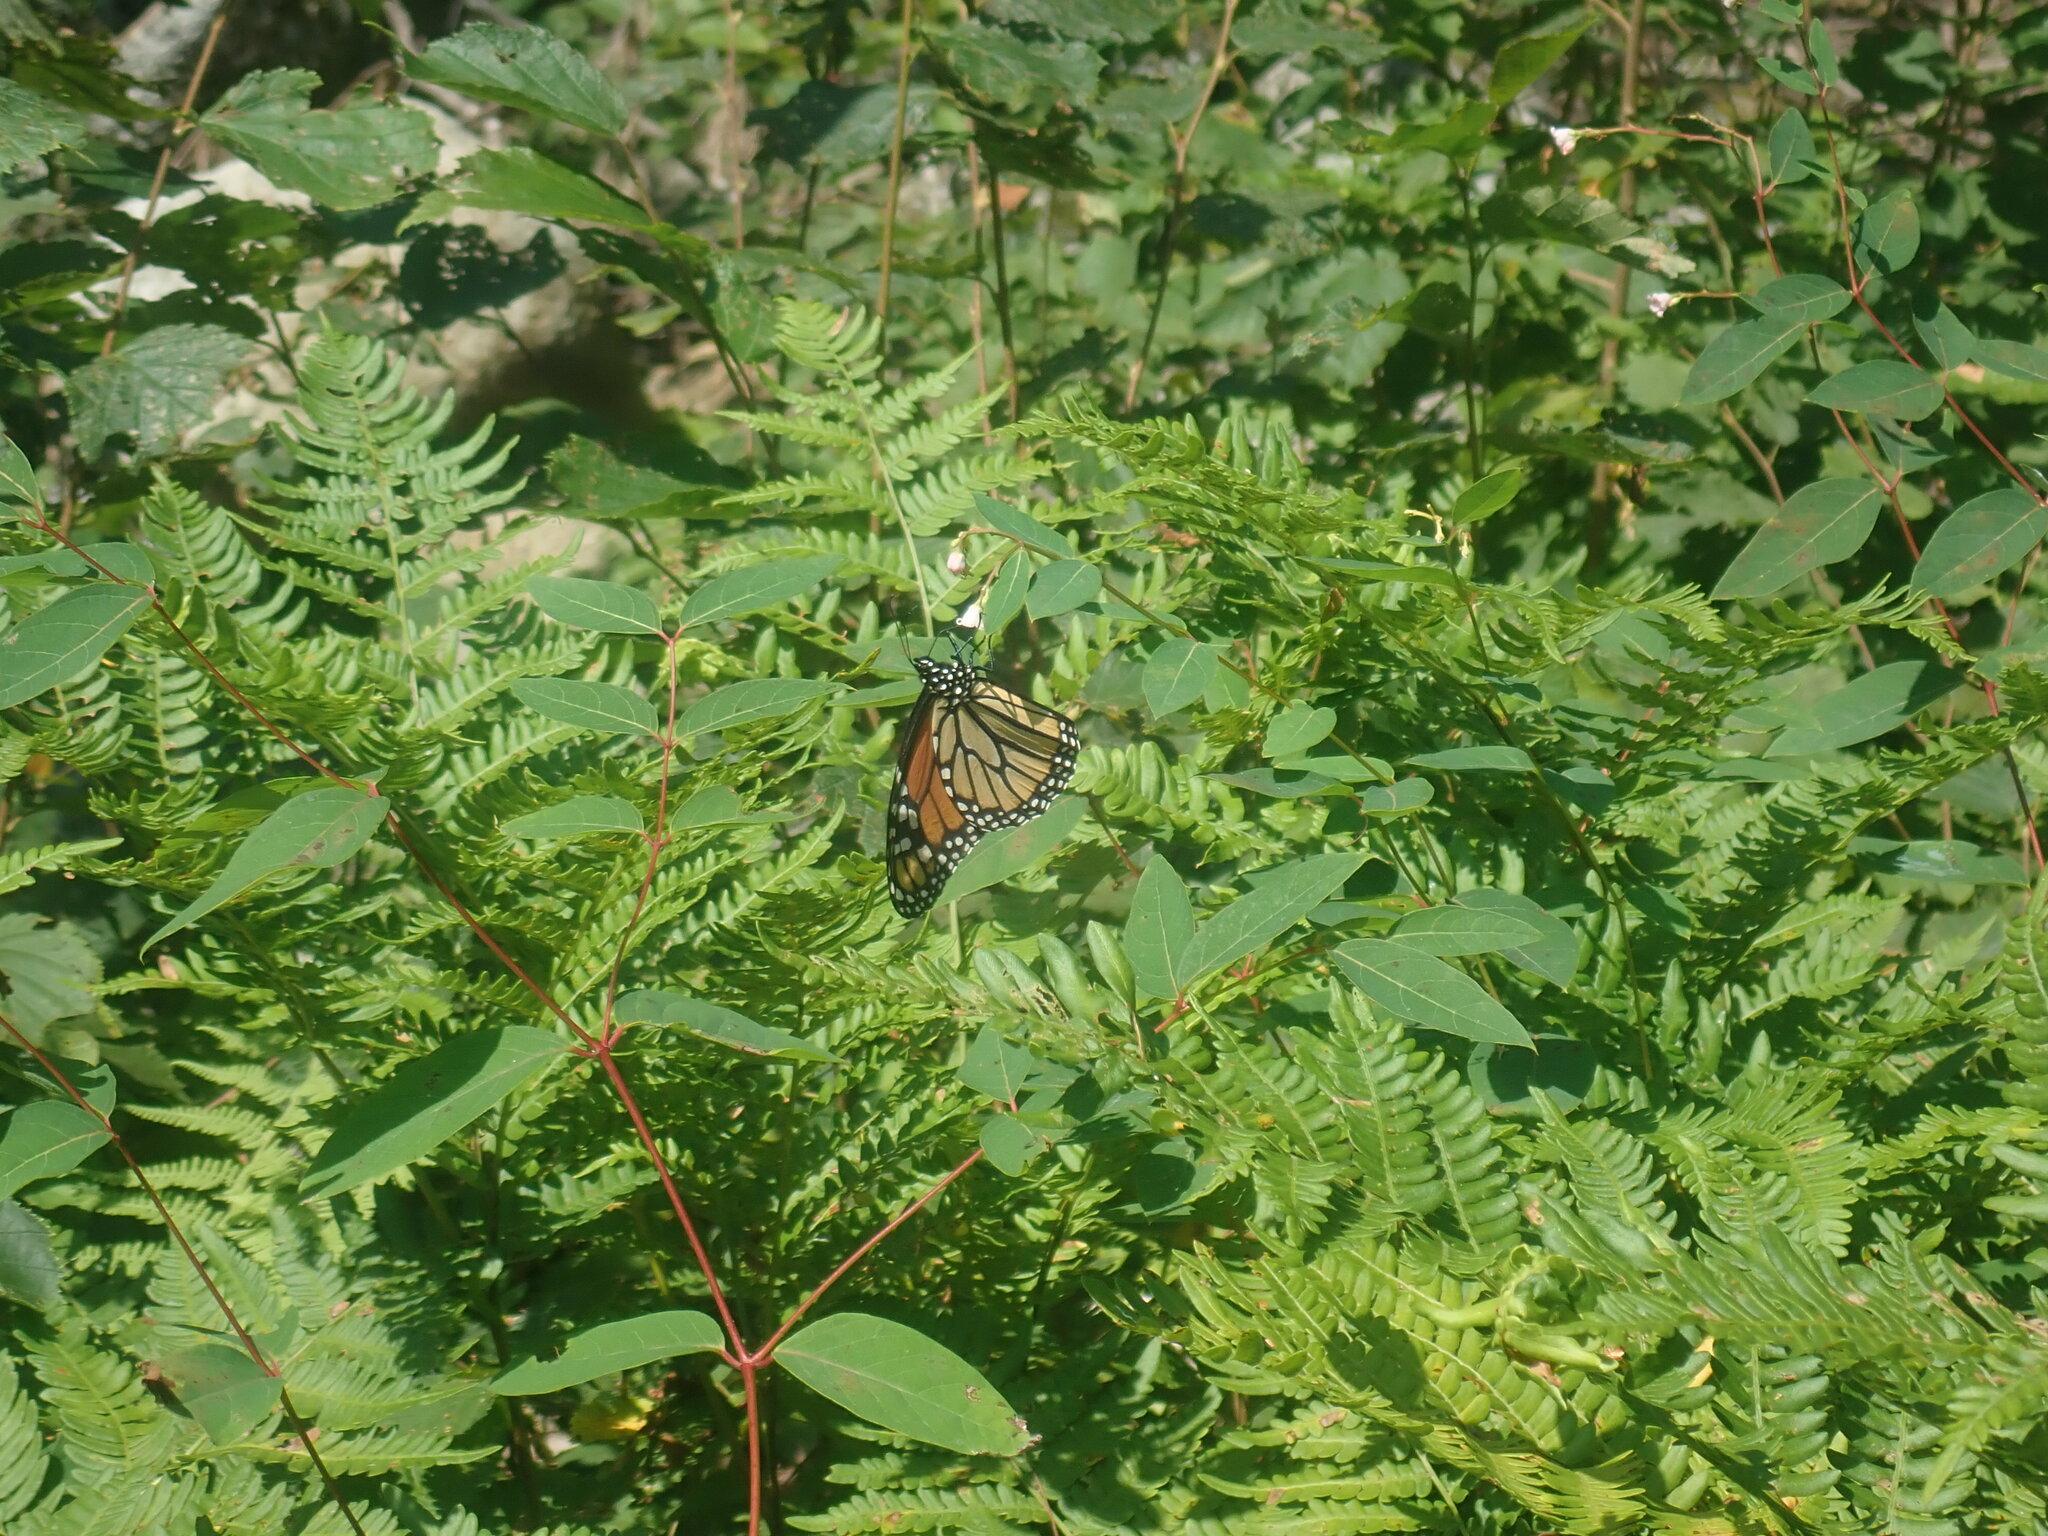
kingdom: Animalia
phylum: Arthropoda
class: Insecta
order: Lepidoptera
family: Nymphalidae
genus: Danaus
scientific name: Danaus plexippus
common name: Monarch
